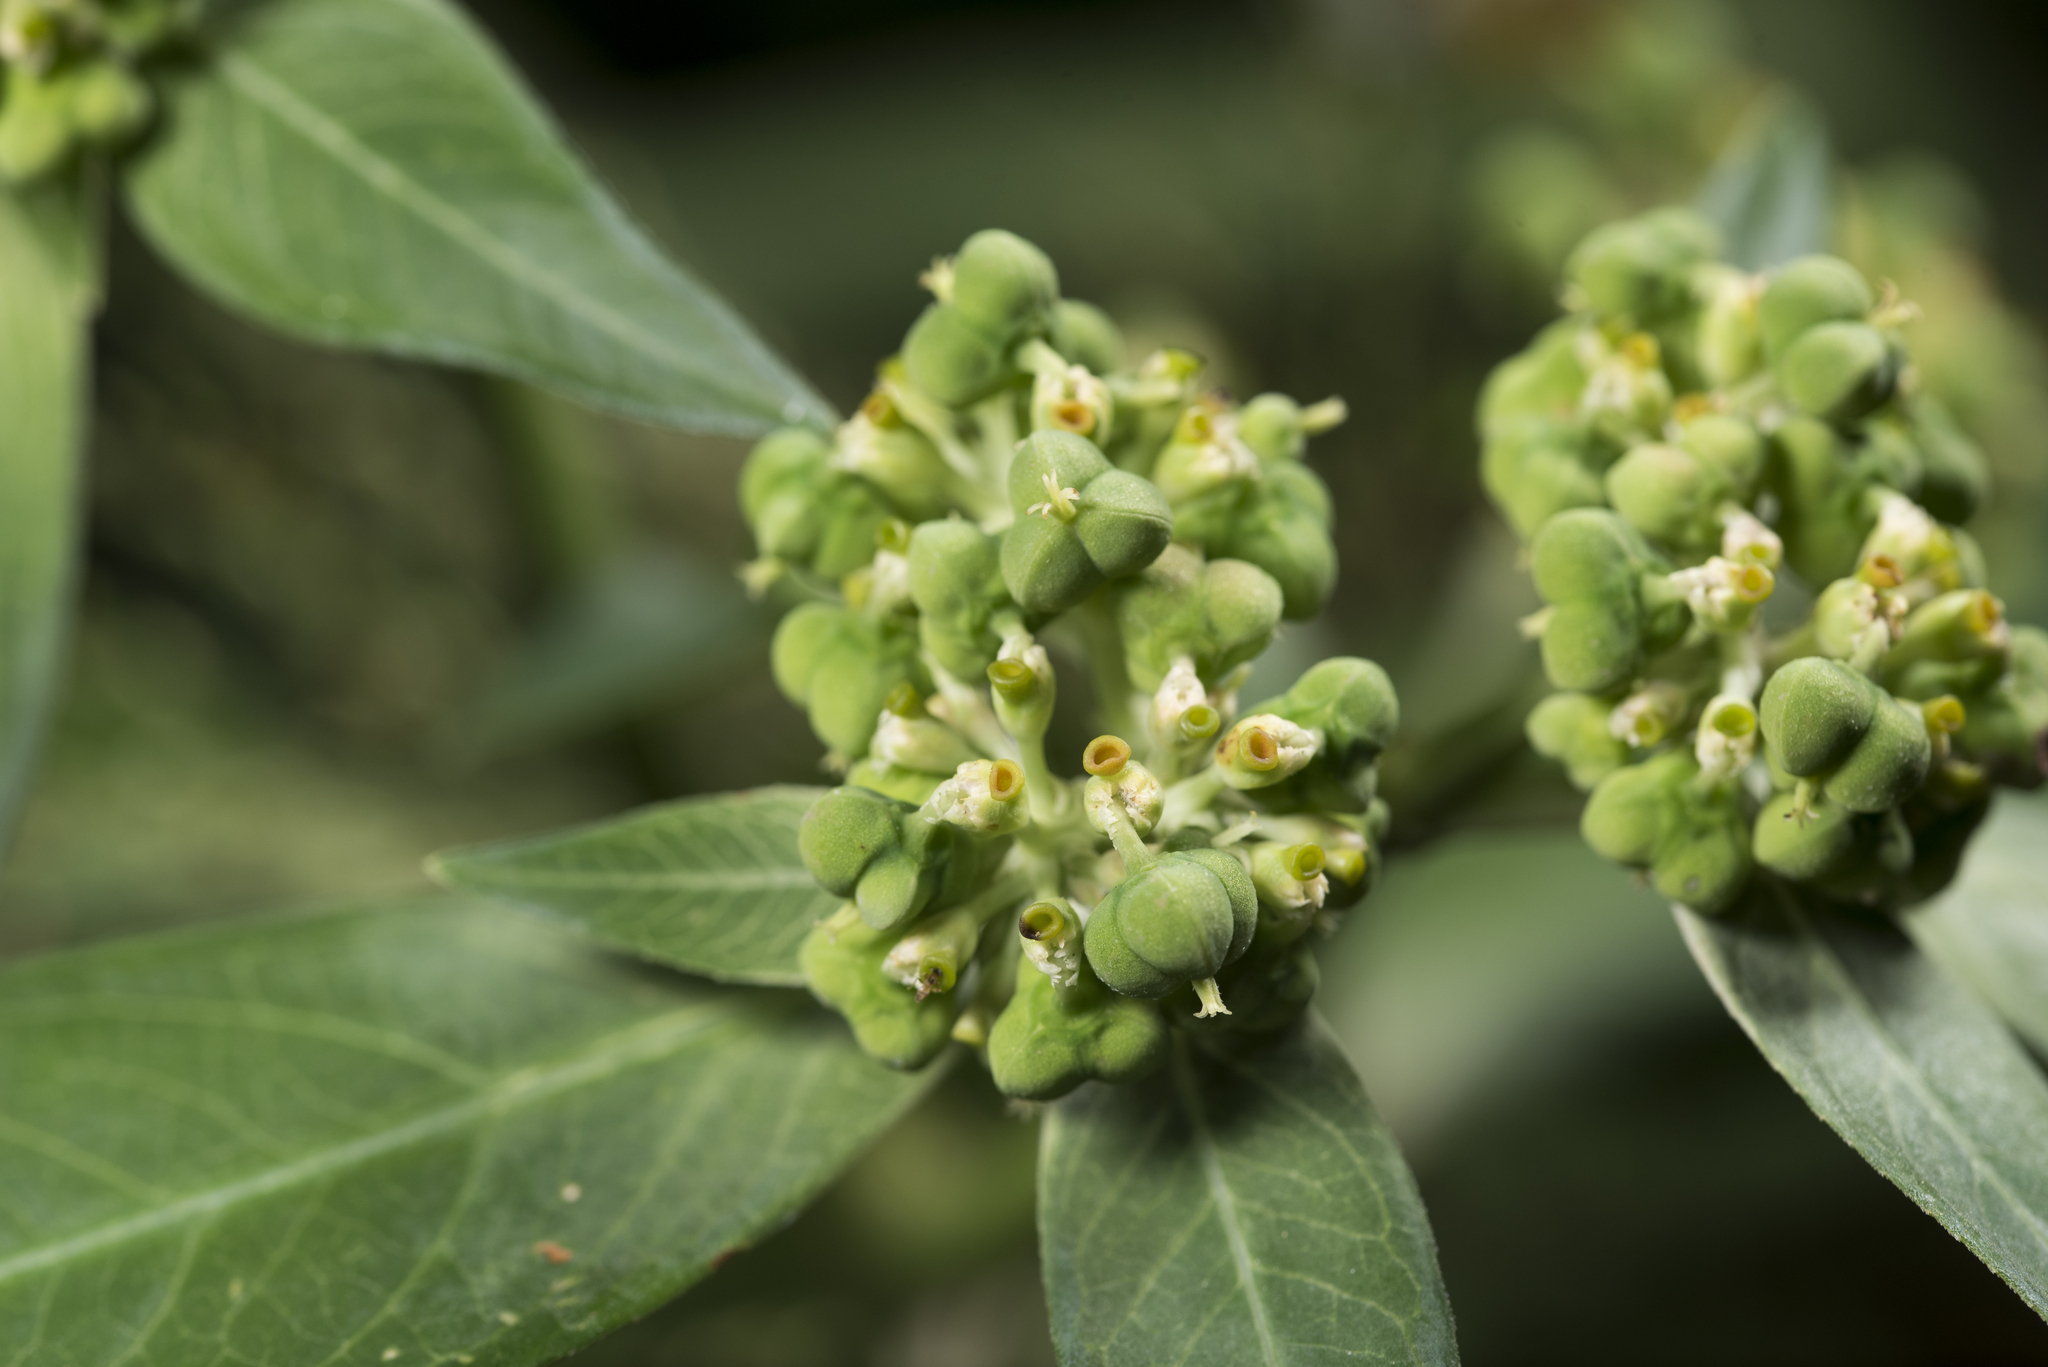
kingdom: Plantae
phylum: Tracheophyta
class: Magnoliopsida
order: Malpighiales
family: Euphorbiaceae
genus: Euphorbia
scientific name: Euphorbia heterophylla
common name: Mexican fireplant
